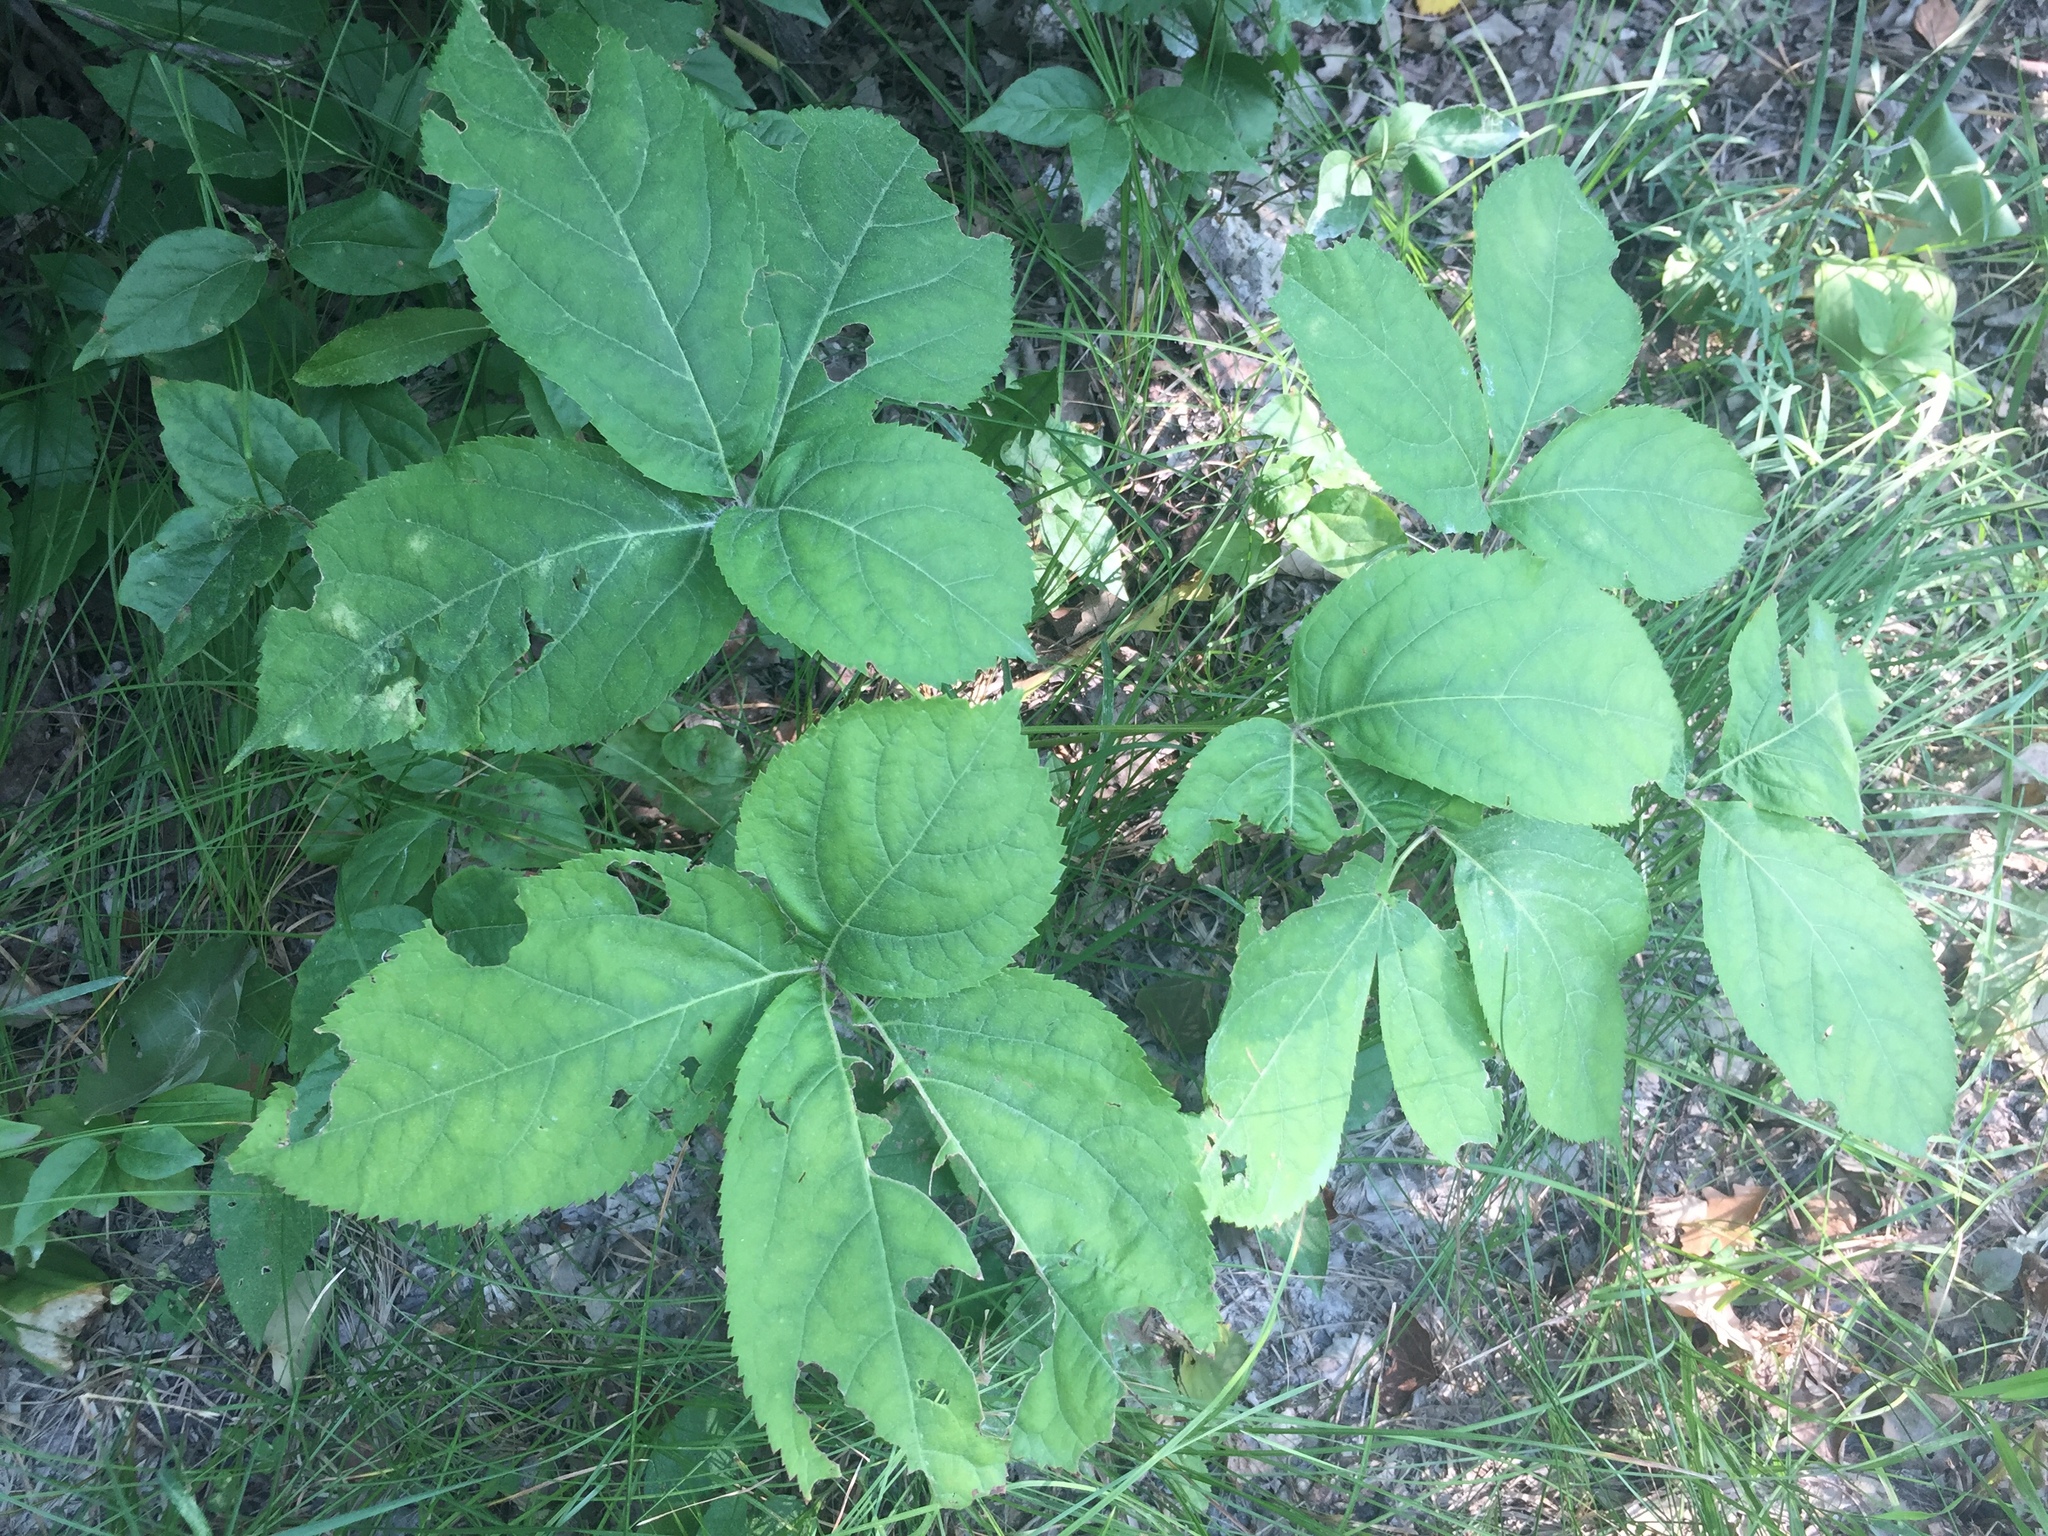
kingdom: Plantae
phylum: Tracheophyta
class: Magnoliopsida
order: Apiales
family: Araliaceae
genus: Aralia
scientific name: Aralia nudicaulis
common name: Wild sarsaparilla
